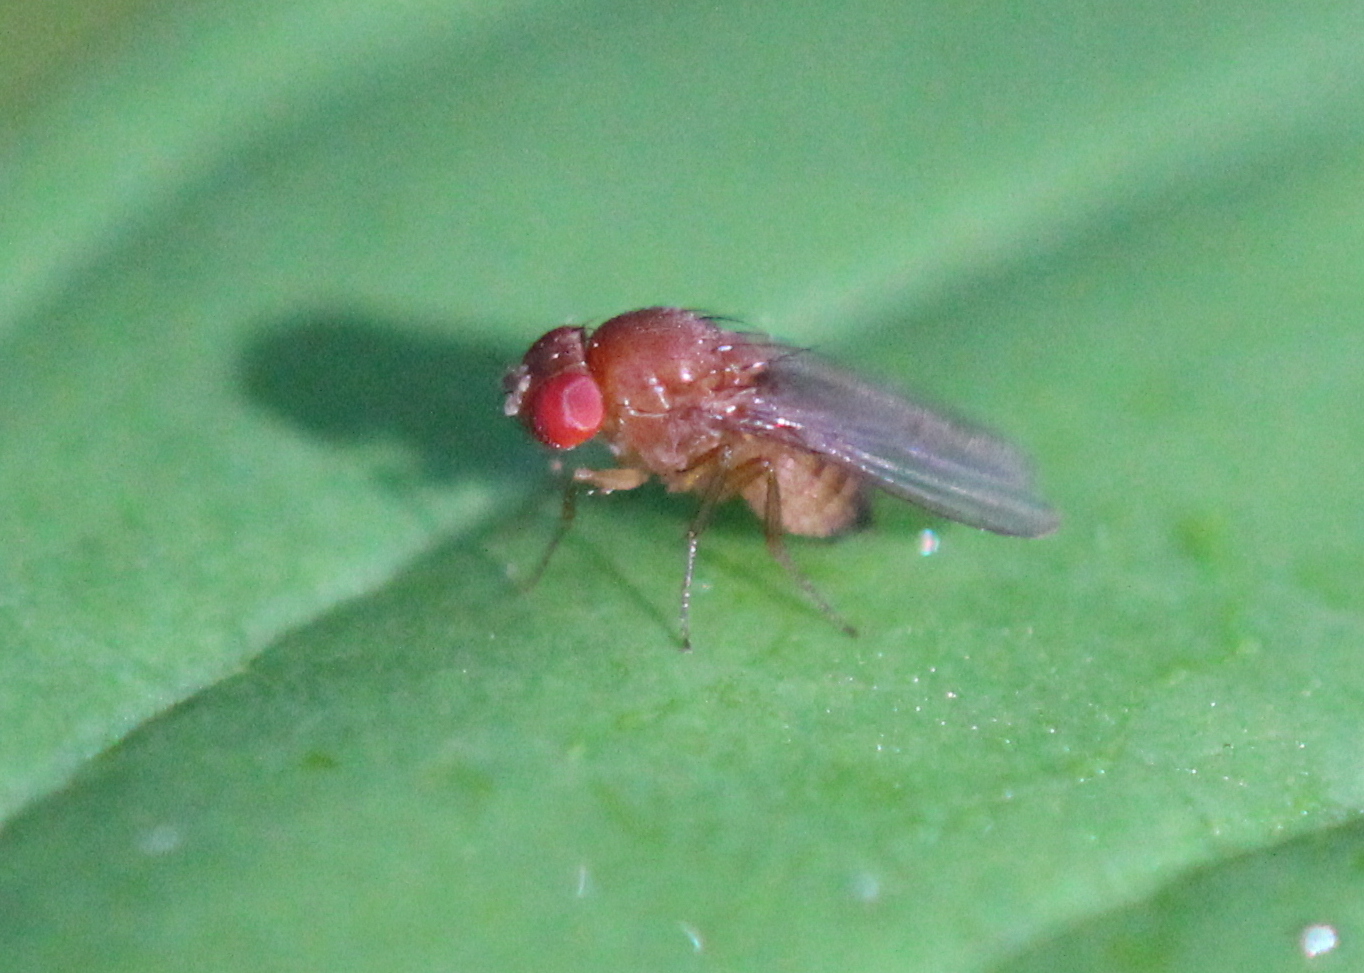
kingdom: Animalia
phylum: Arthropoda
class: Insecta
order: Diptera
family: Drosophilidae
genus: Drosophila
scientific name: Drosophila suzukii
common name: Spotted-wing drosophila
